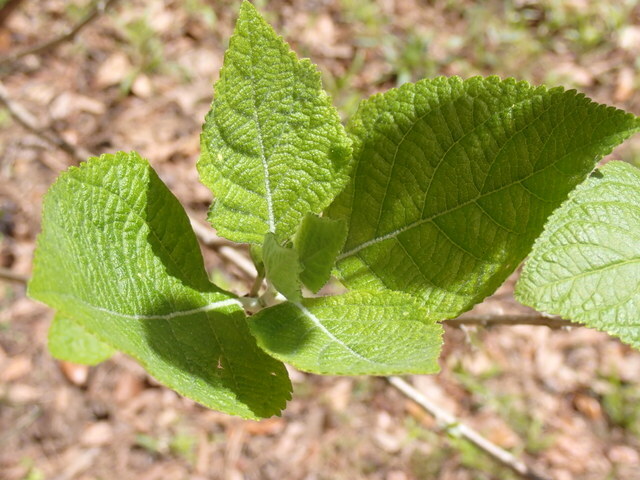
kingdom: Plantae
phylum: Tracheophyta
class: Magnoliopsida
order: Lamiales
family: Lamiaceae
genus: Callicarpa
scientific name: Callicarpa americana
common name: American beautyberry
